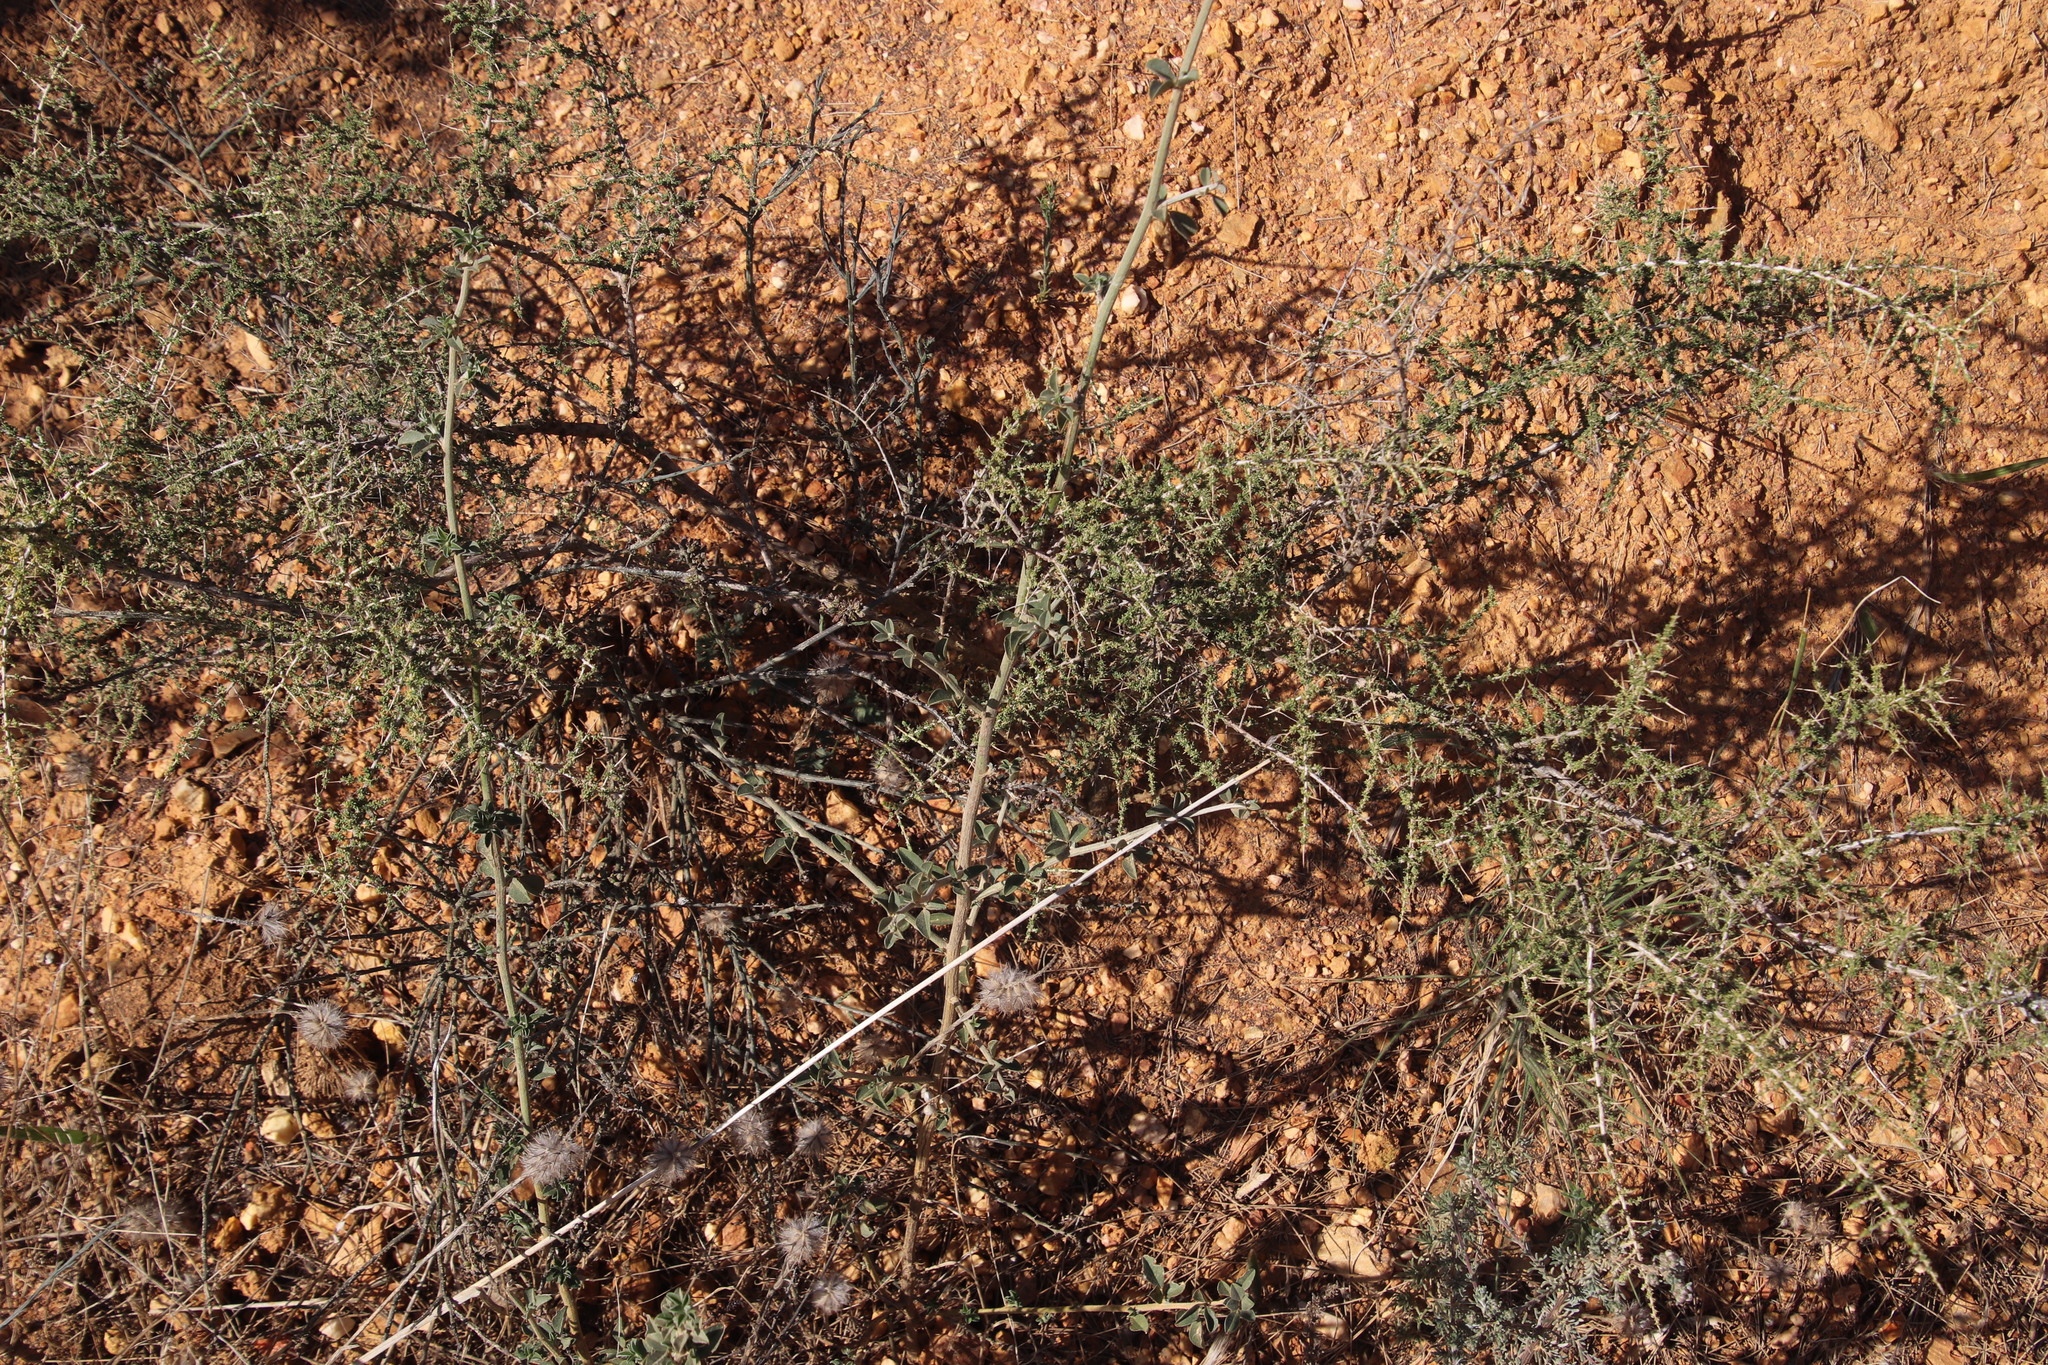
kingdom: Plantae
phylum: Tracheophyta
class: Magnoliopsida
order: Fabales
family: Fabaceae
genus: Aspalathus
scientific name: Aspalathus acuminata
